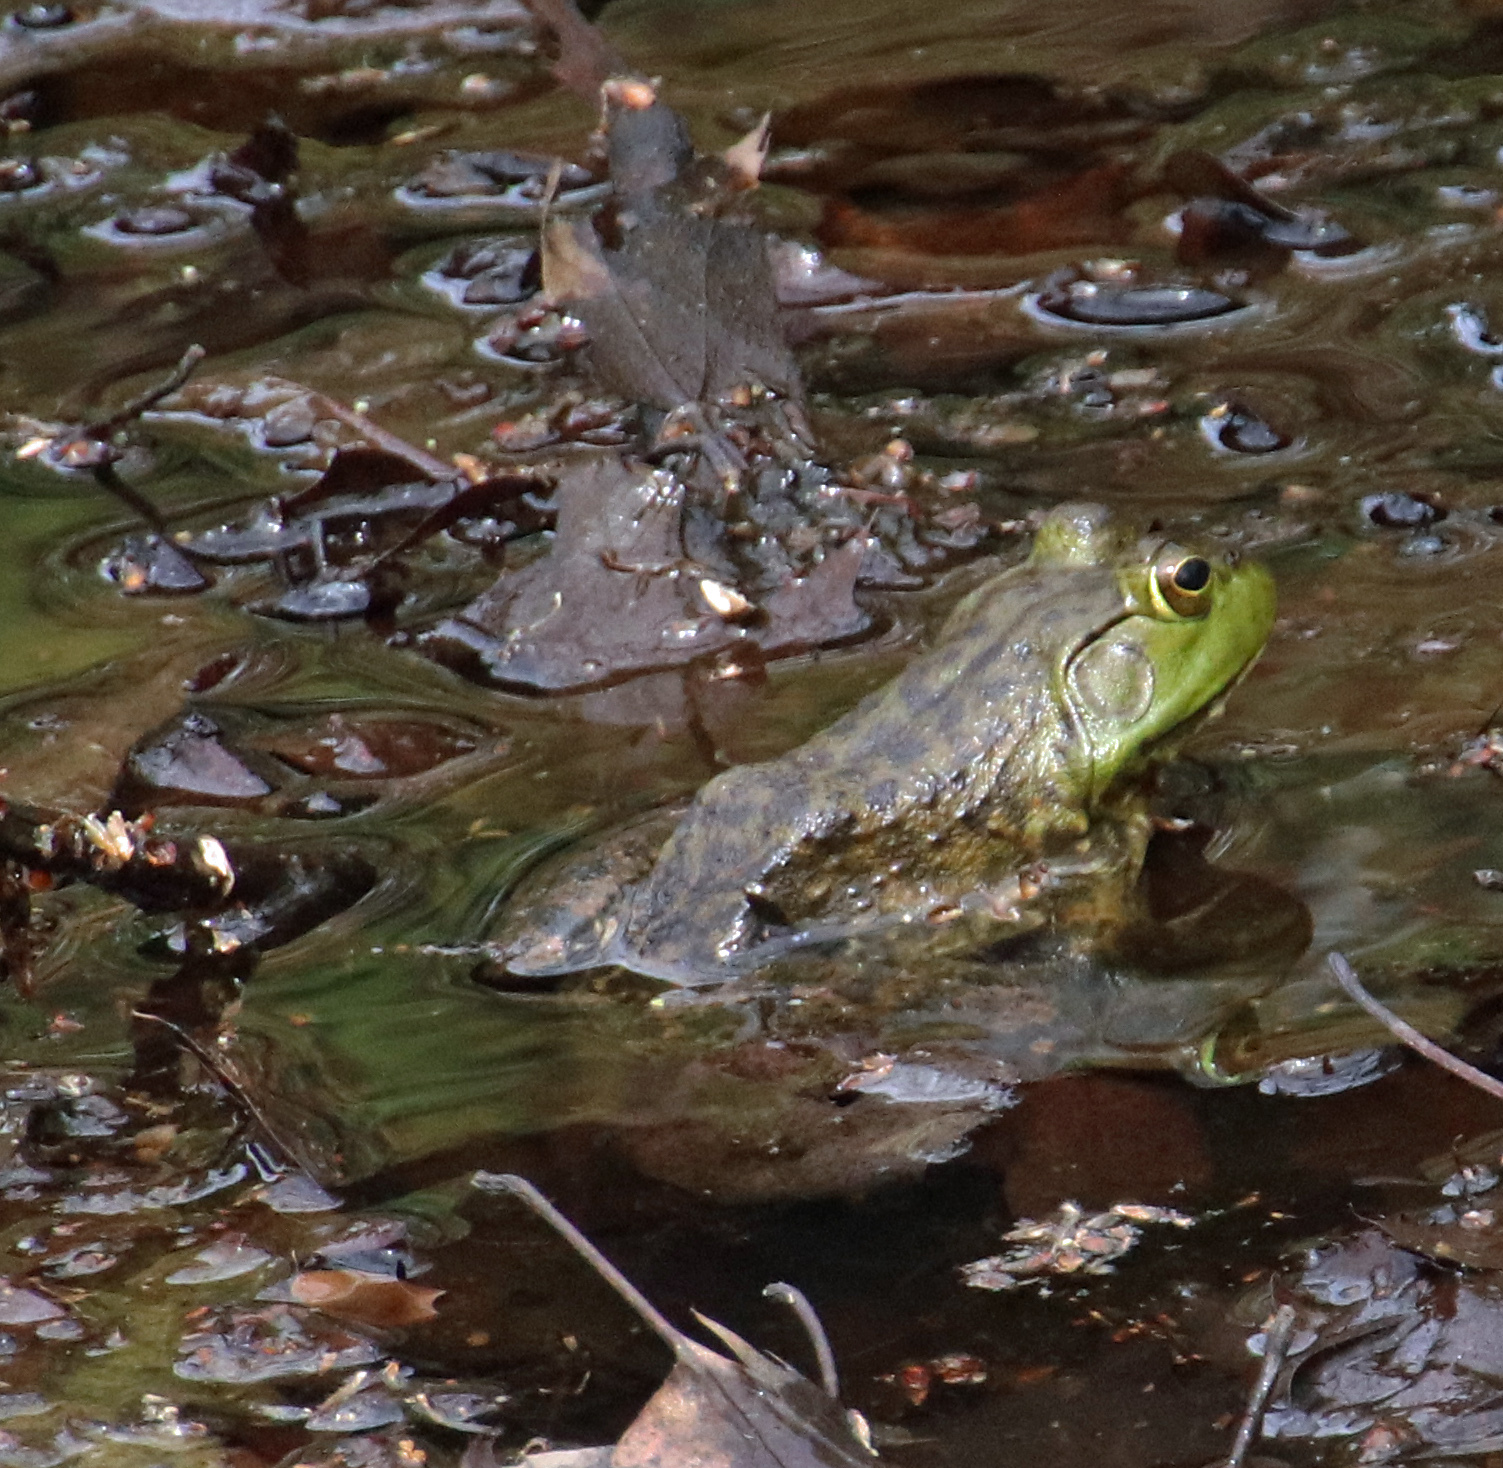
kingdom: Animalia
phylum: Chordata
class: Amphibia
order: Anura
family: Ranidae
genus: Lithobates
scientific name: Lithobates catesbeianus
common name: American bullfrog
